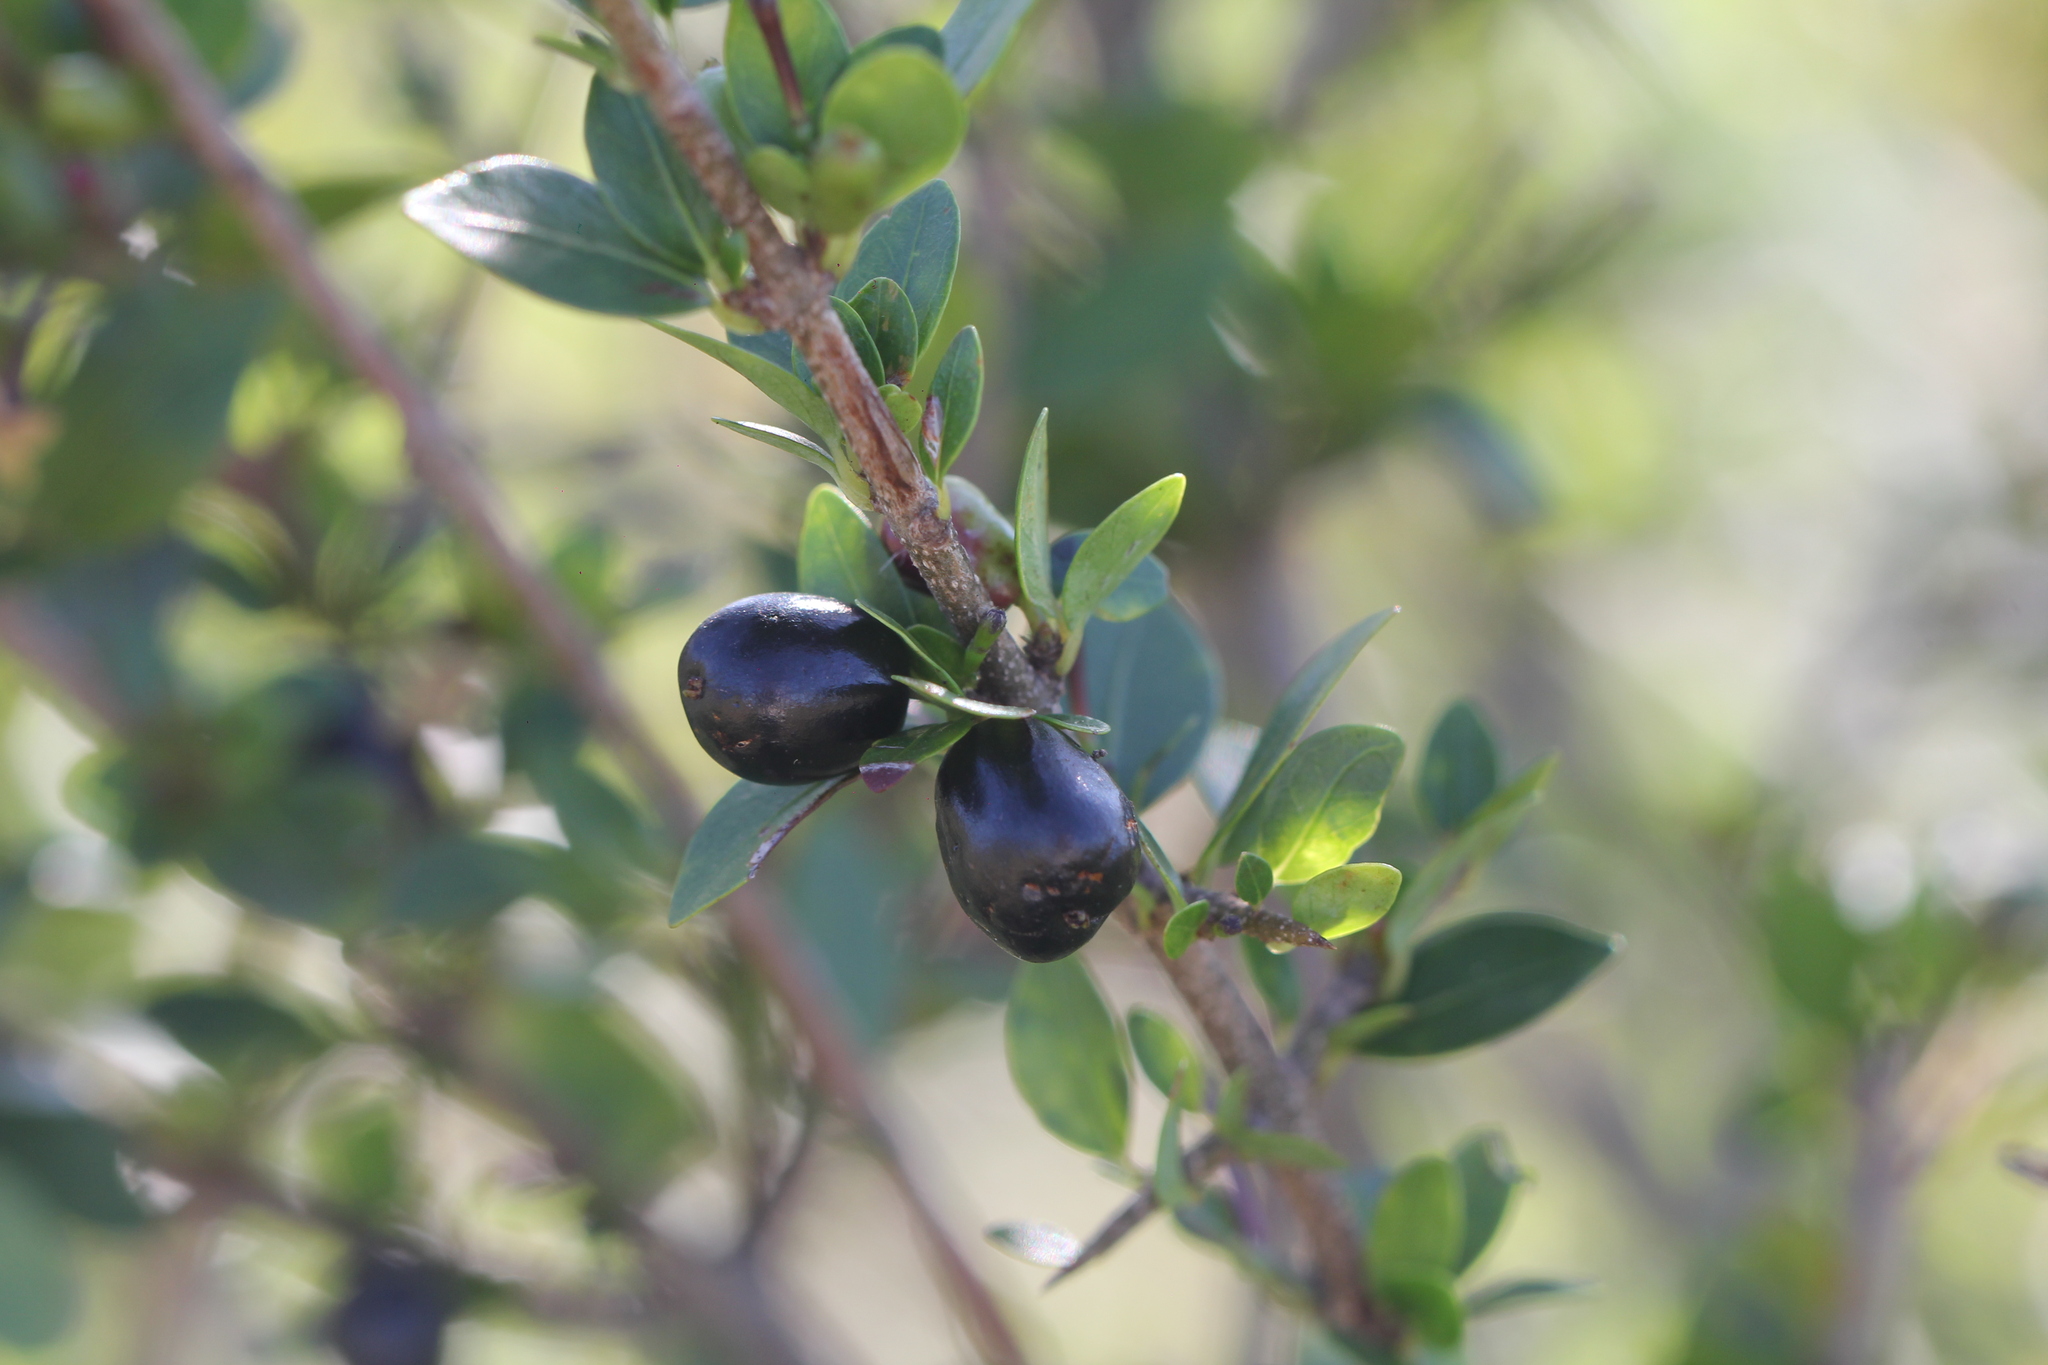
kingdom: Plantae
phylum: Tracheophyta
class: Magnoliopsida
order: Gentianales
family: Rubiaceae
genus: Chomelia
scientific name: Chomelia obtusa
